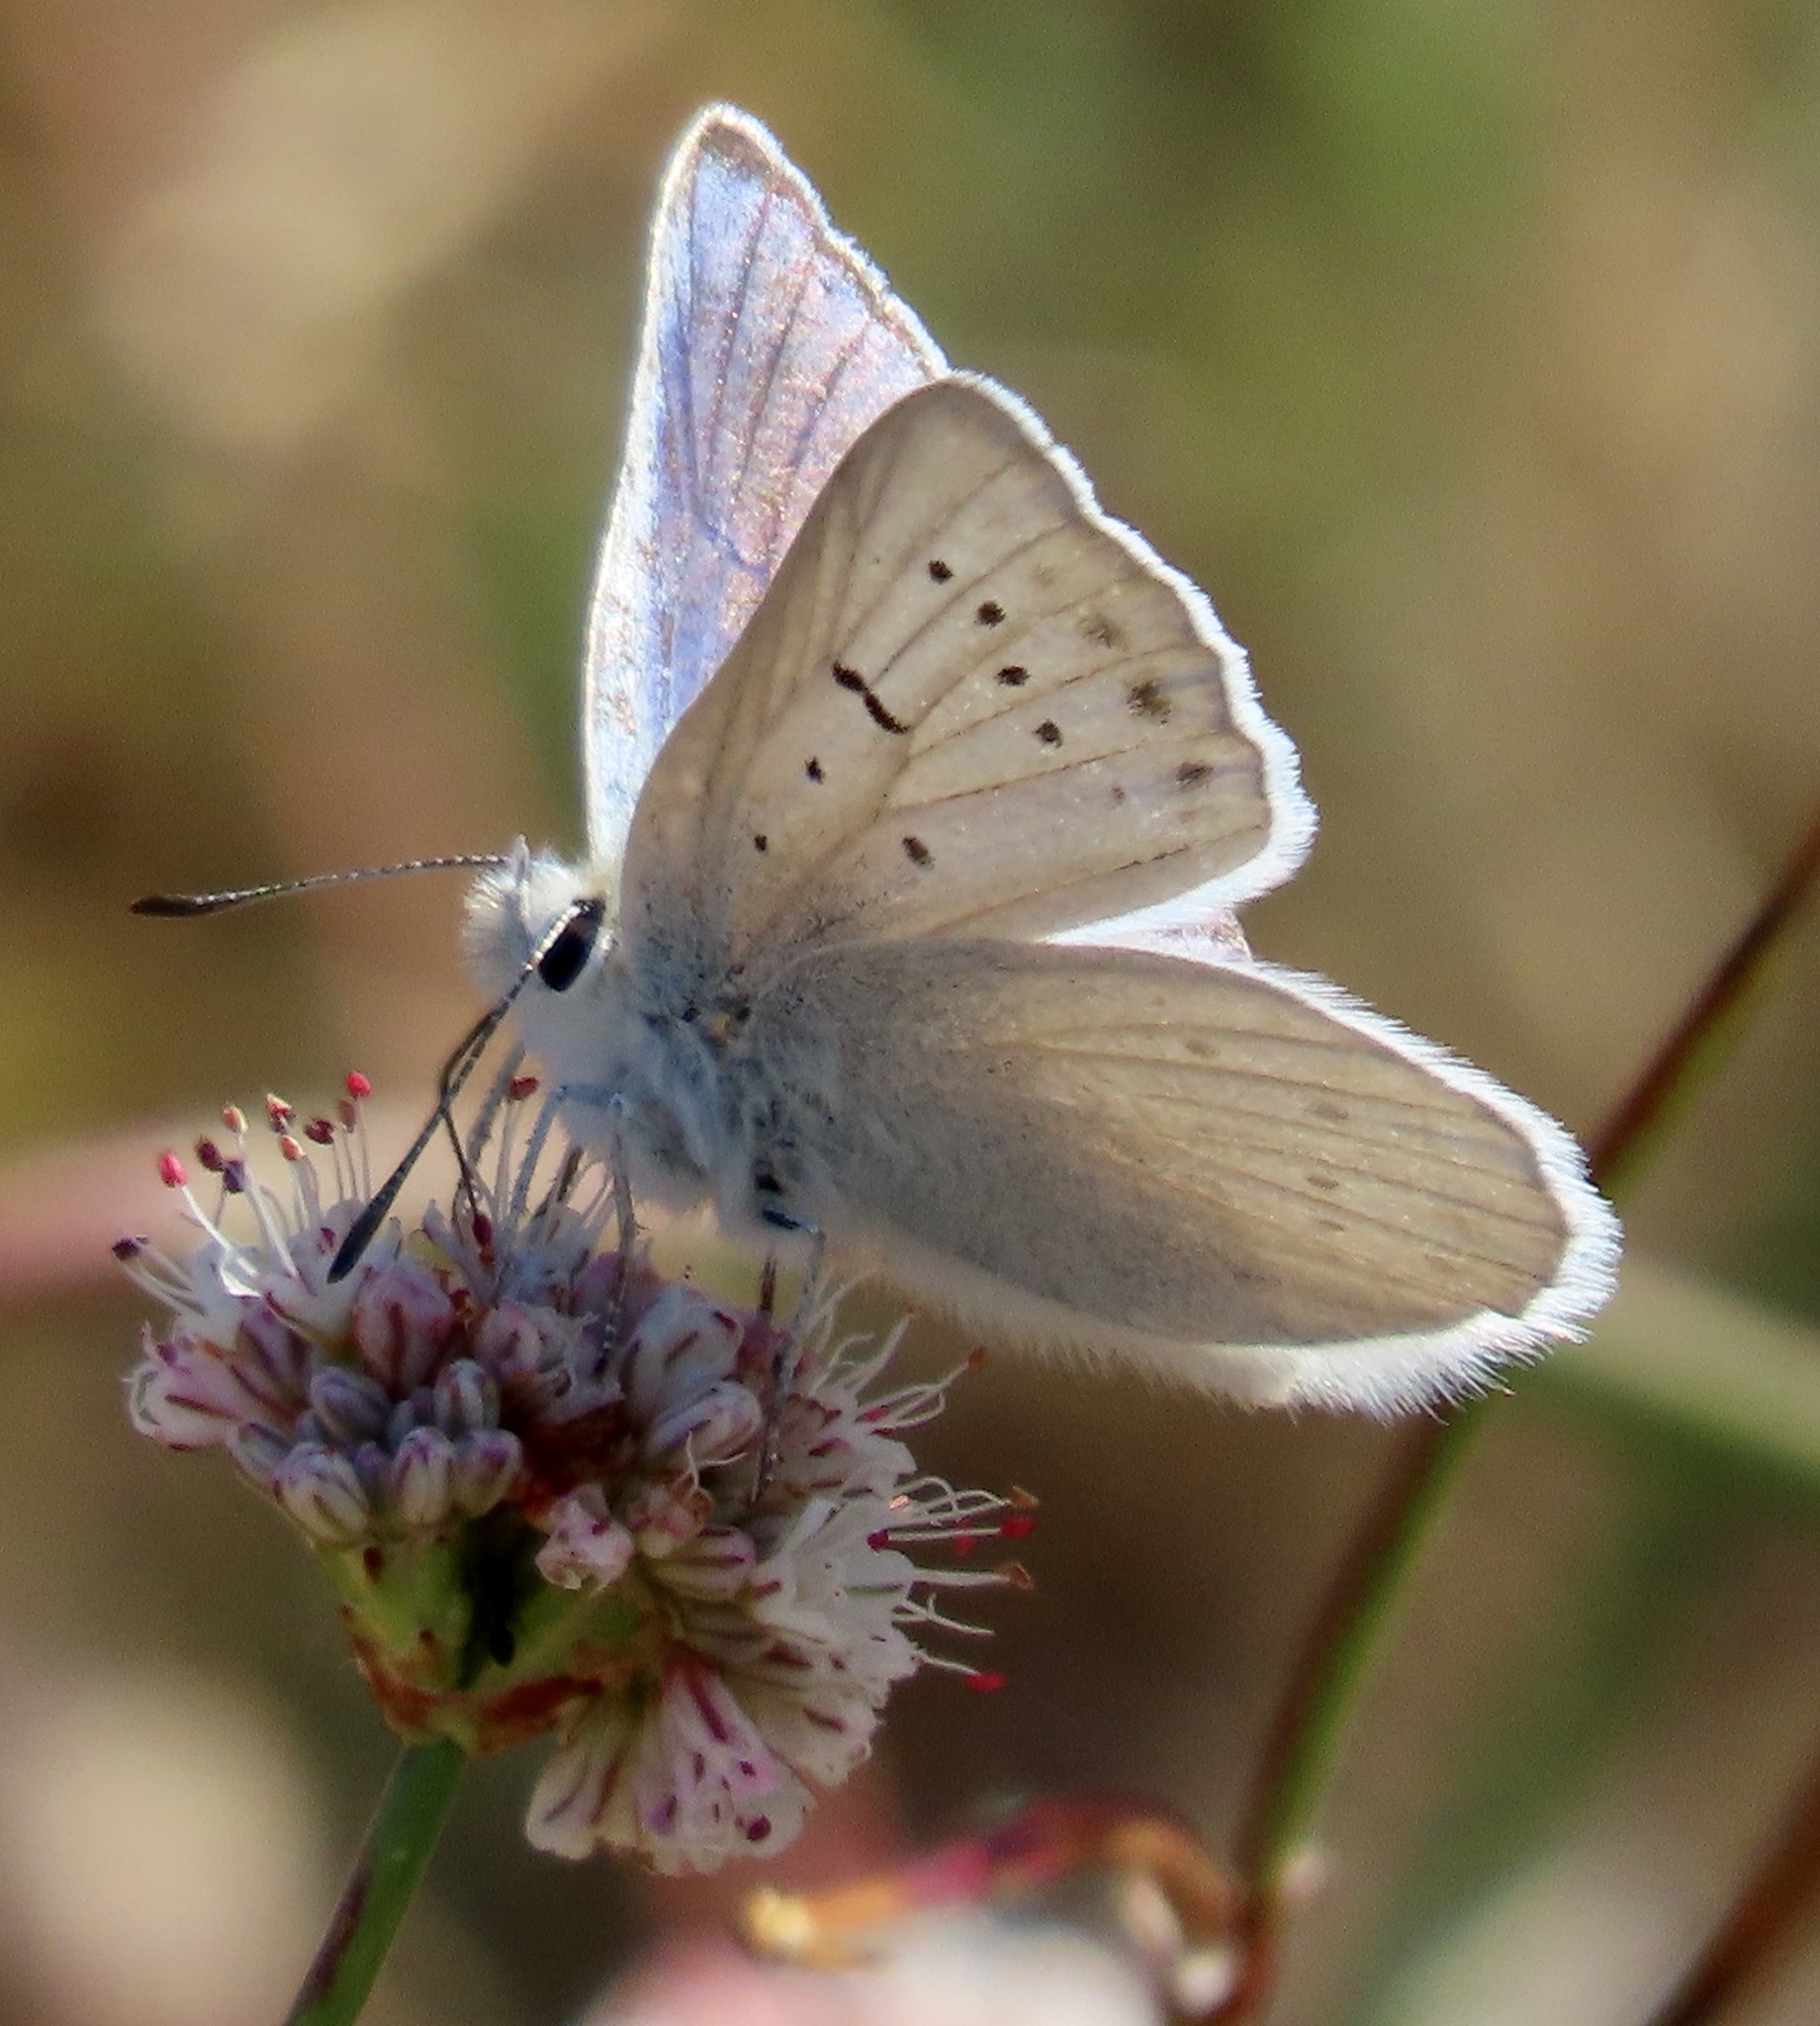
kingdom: Animalia
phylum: Arthropoda
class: Insecta
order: Lepidoptera
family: Lycaenidae
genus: Tharsalea
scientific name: Tharsalea heteronea
